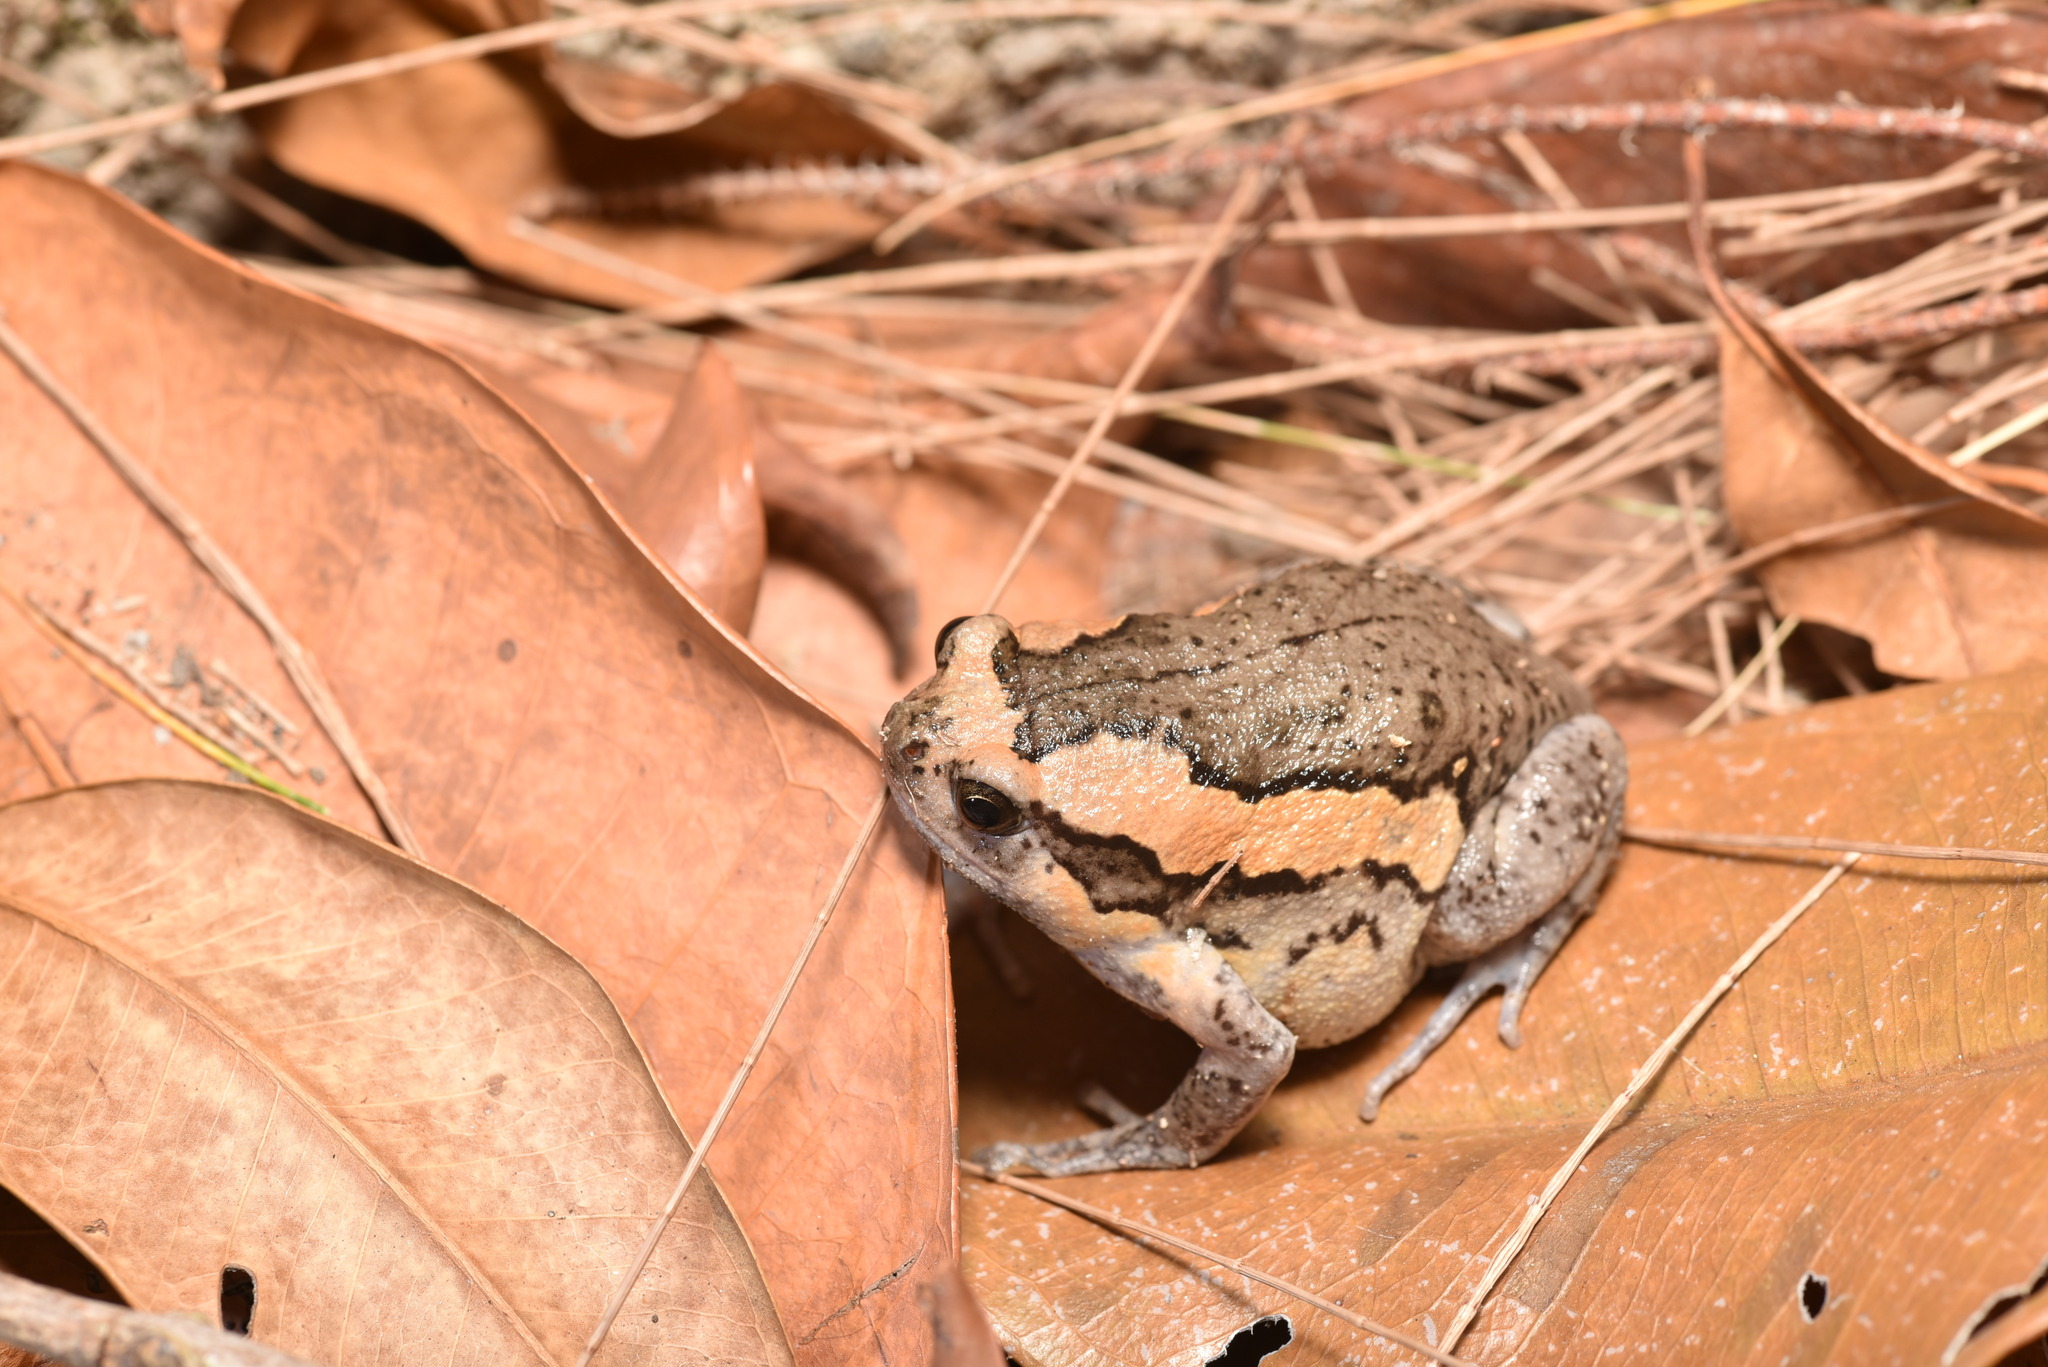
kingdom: Animalia
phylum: Chordata
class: Amphibia
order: Anura
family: Microhylidae
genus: Kaloula
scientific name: Kaloula pulchra
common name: Common,banded bullfrog
